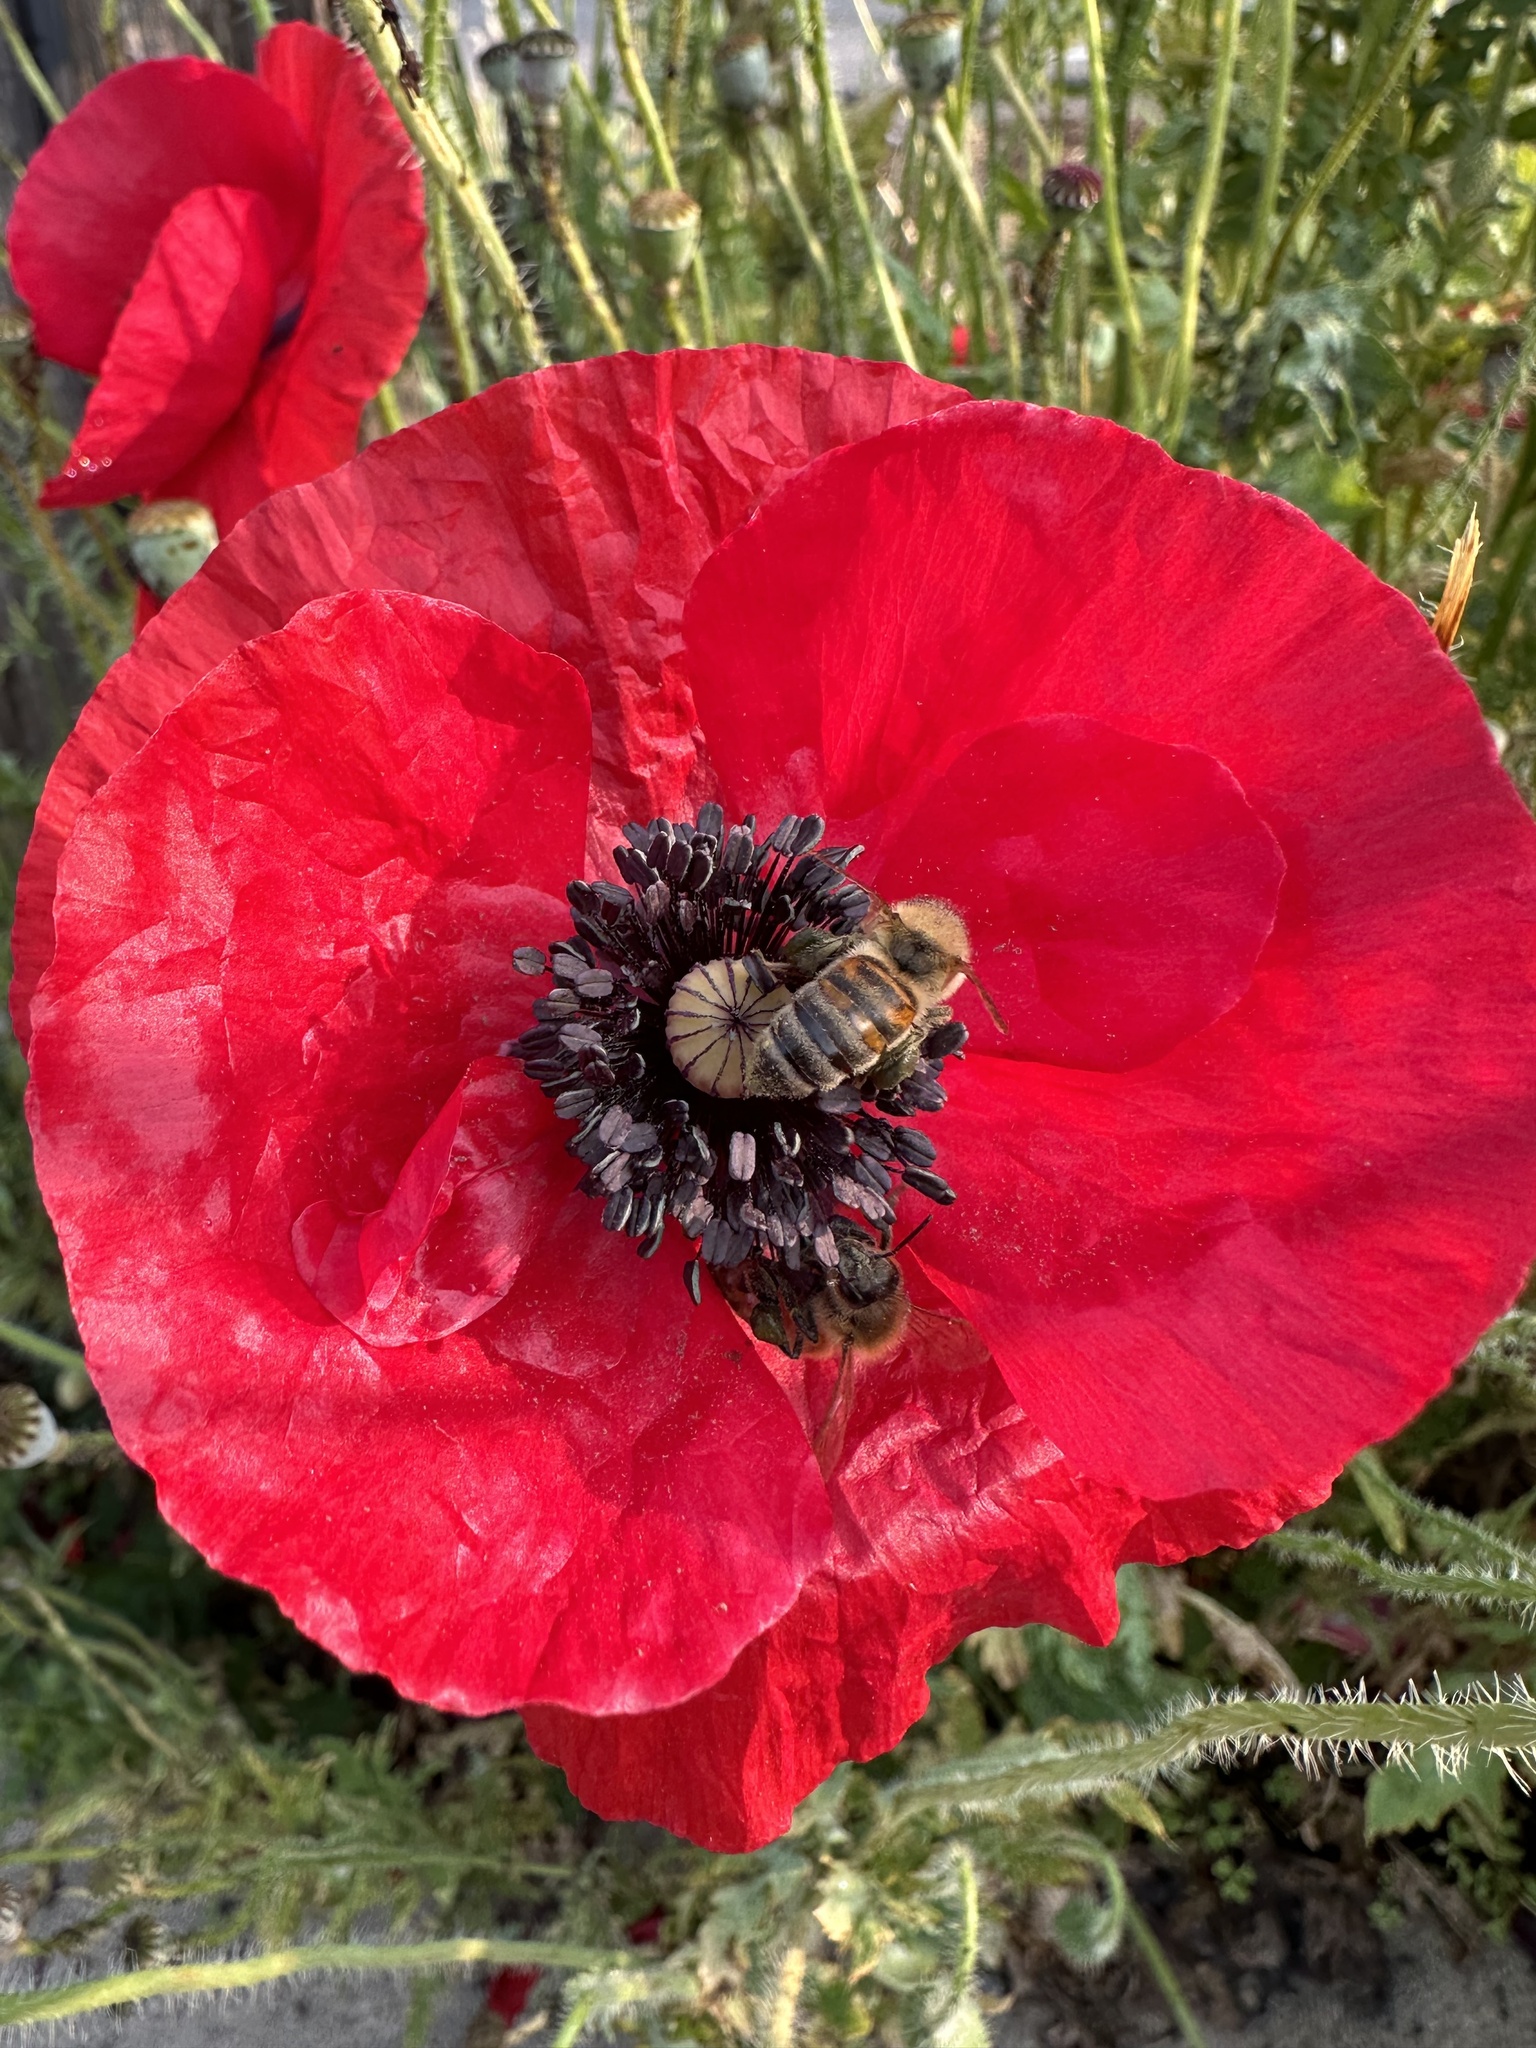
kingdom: Animalia
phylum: Arthropoda
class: Insecta
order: Hymenoptera
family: Apidae
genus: Apis
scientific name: Apis mellifera
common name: Honey bee
